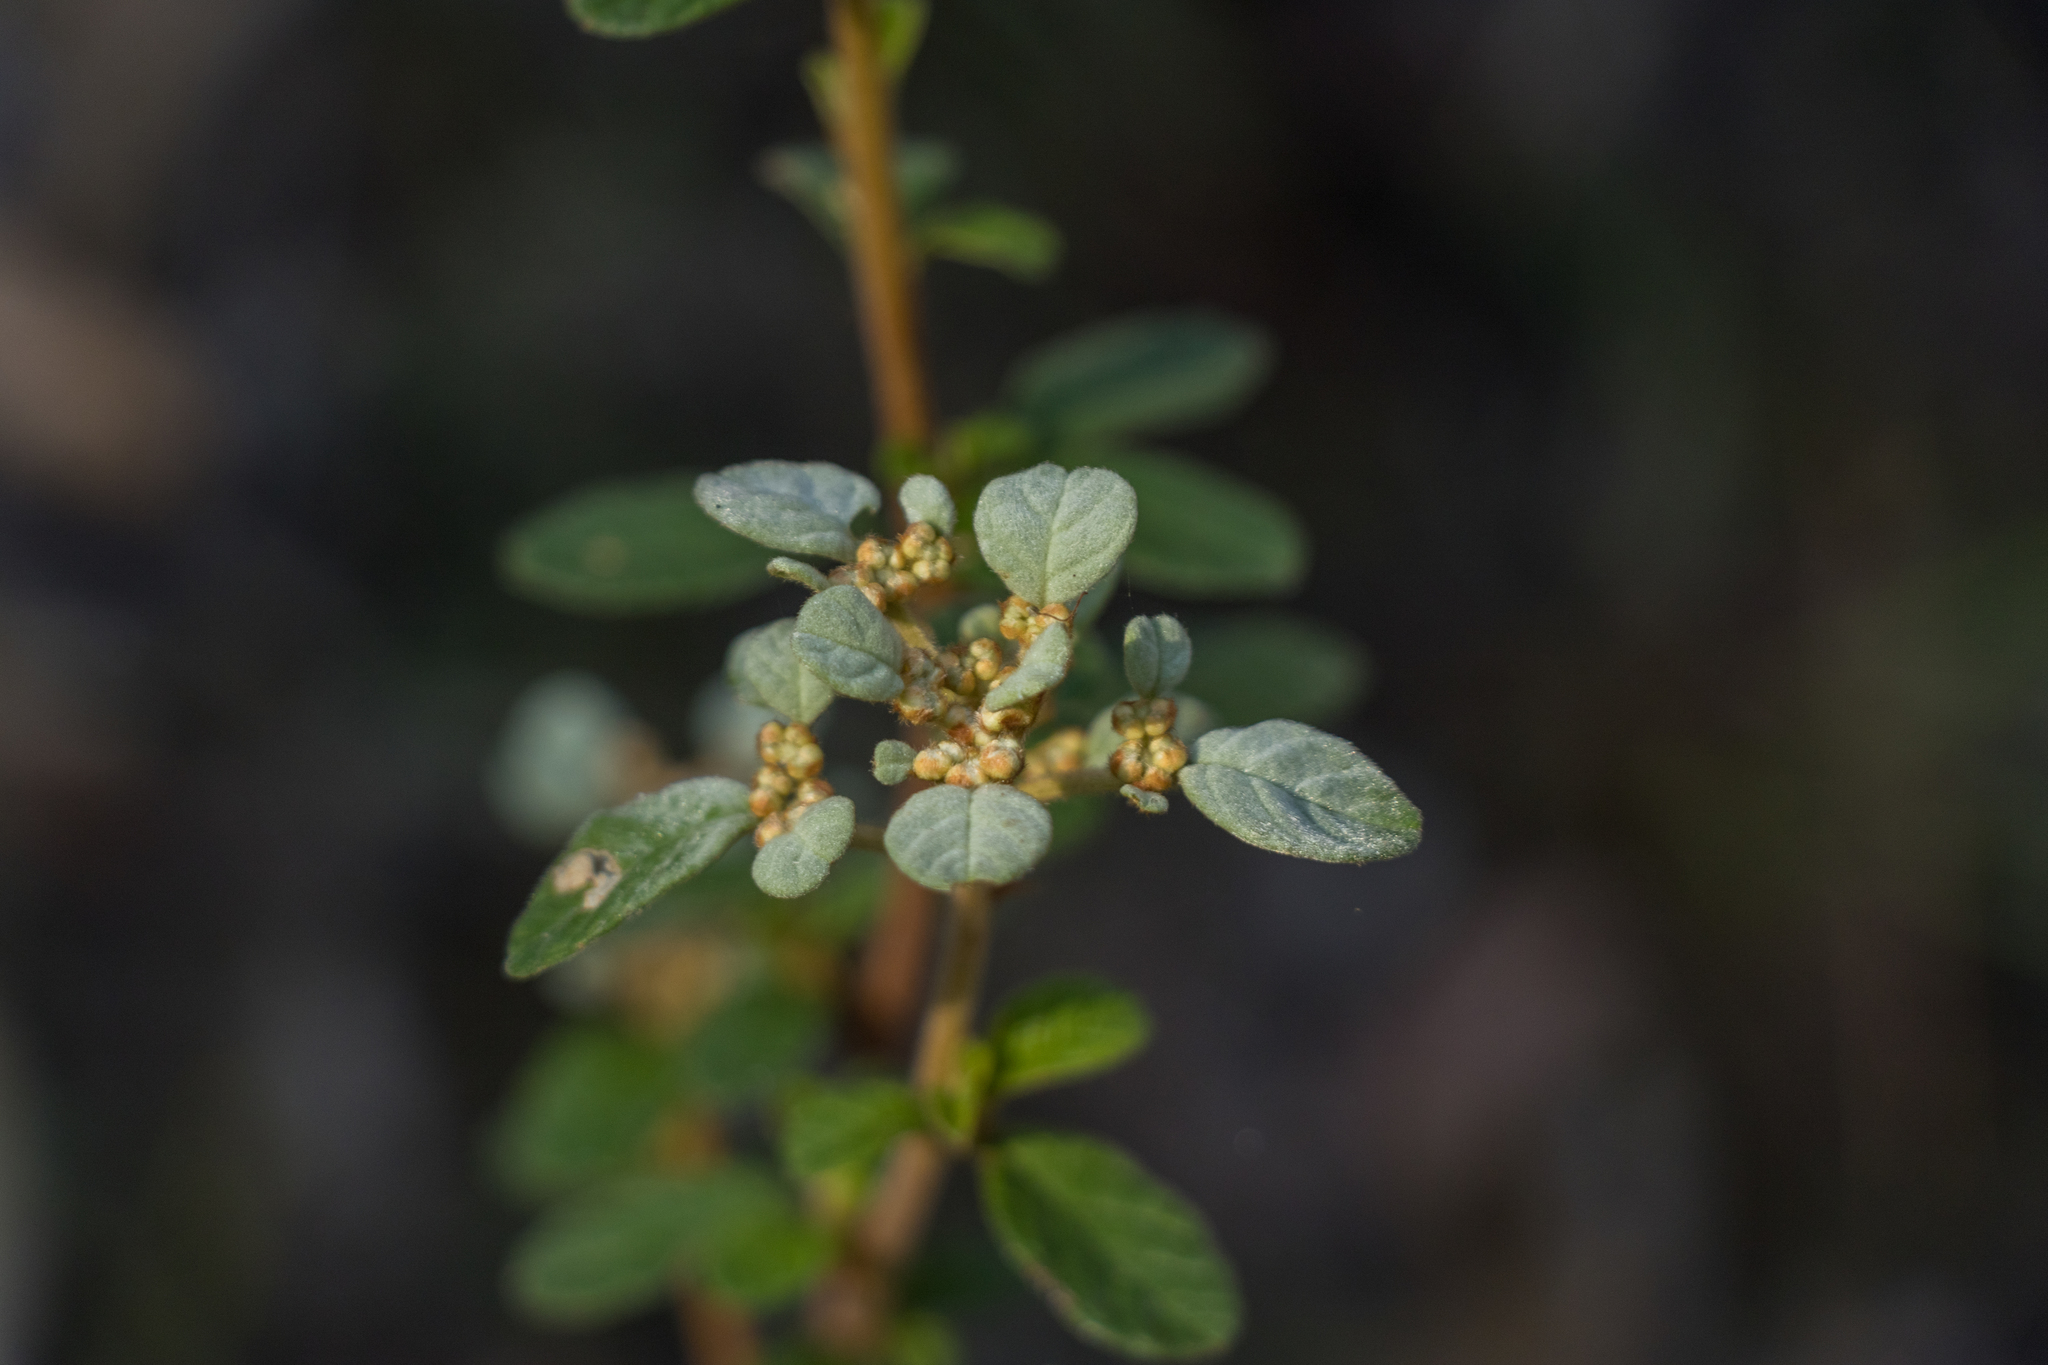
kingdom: Plantae
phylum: Tracheophyta
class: Magnoliopsida
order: Rosales
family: Rhamnaceae
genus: Spyridium
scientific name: Spyridium parvifolium
